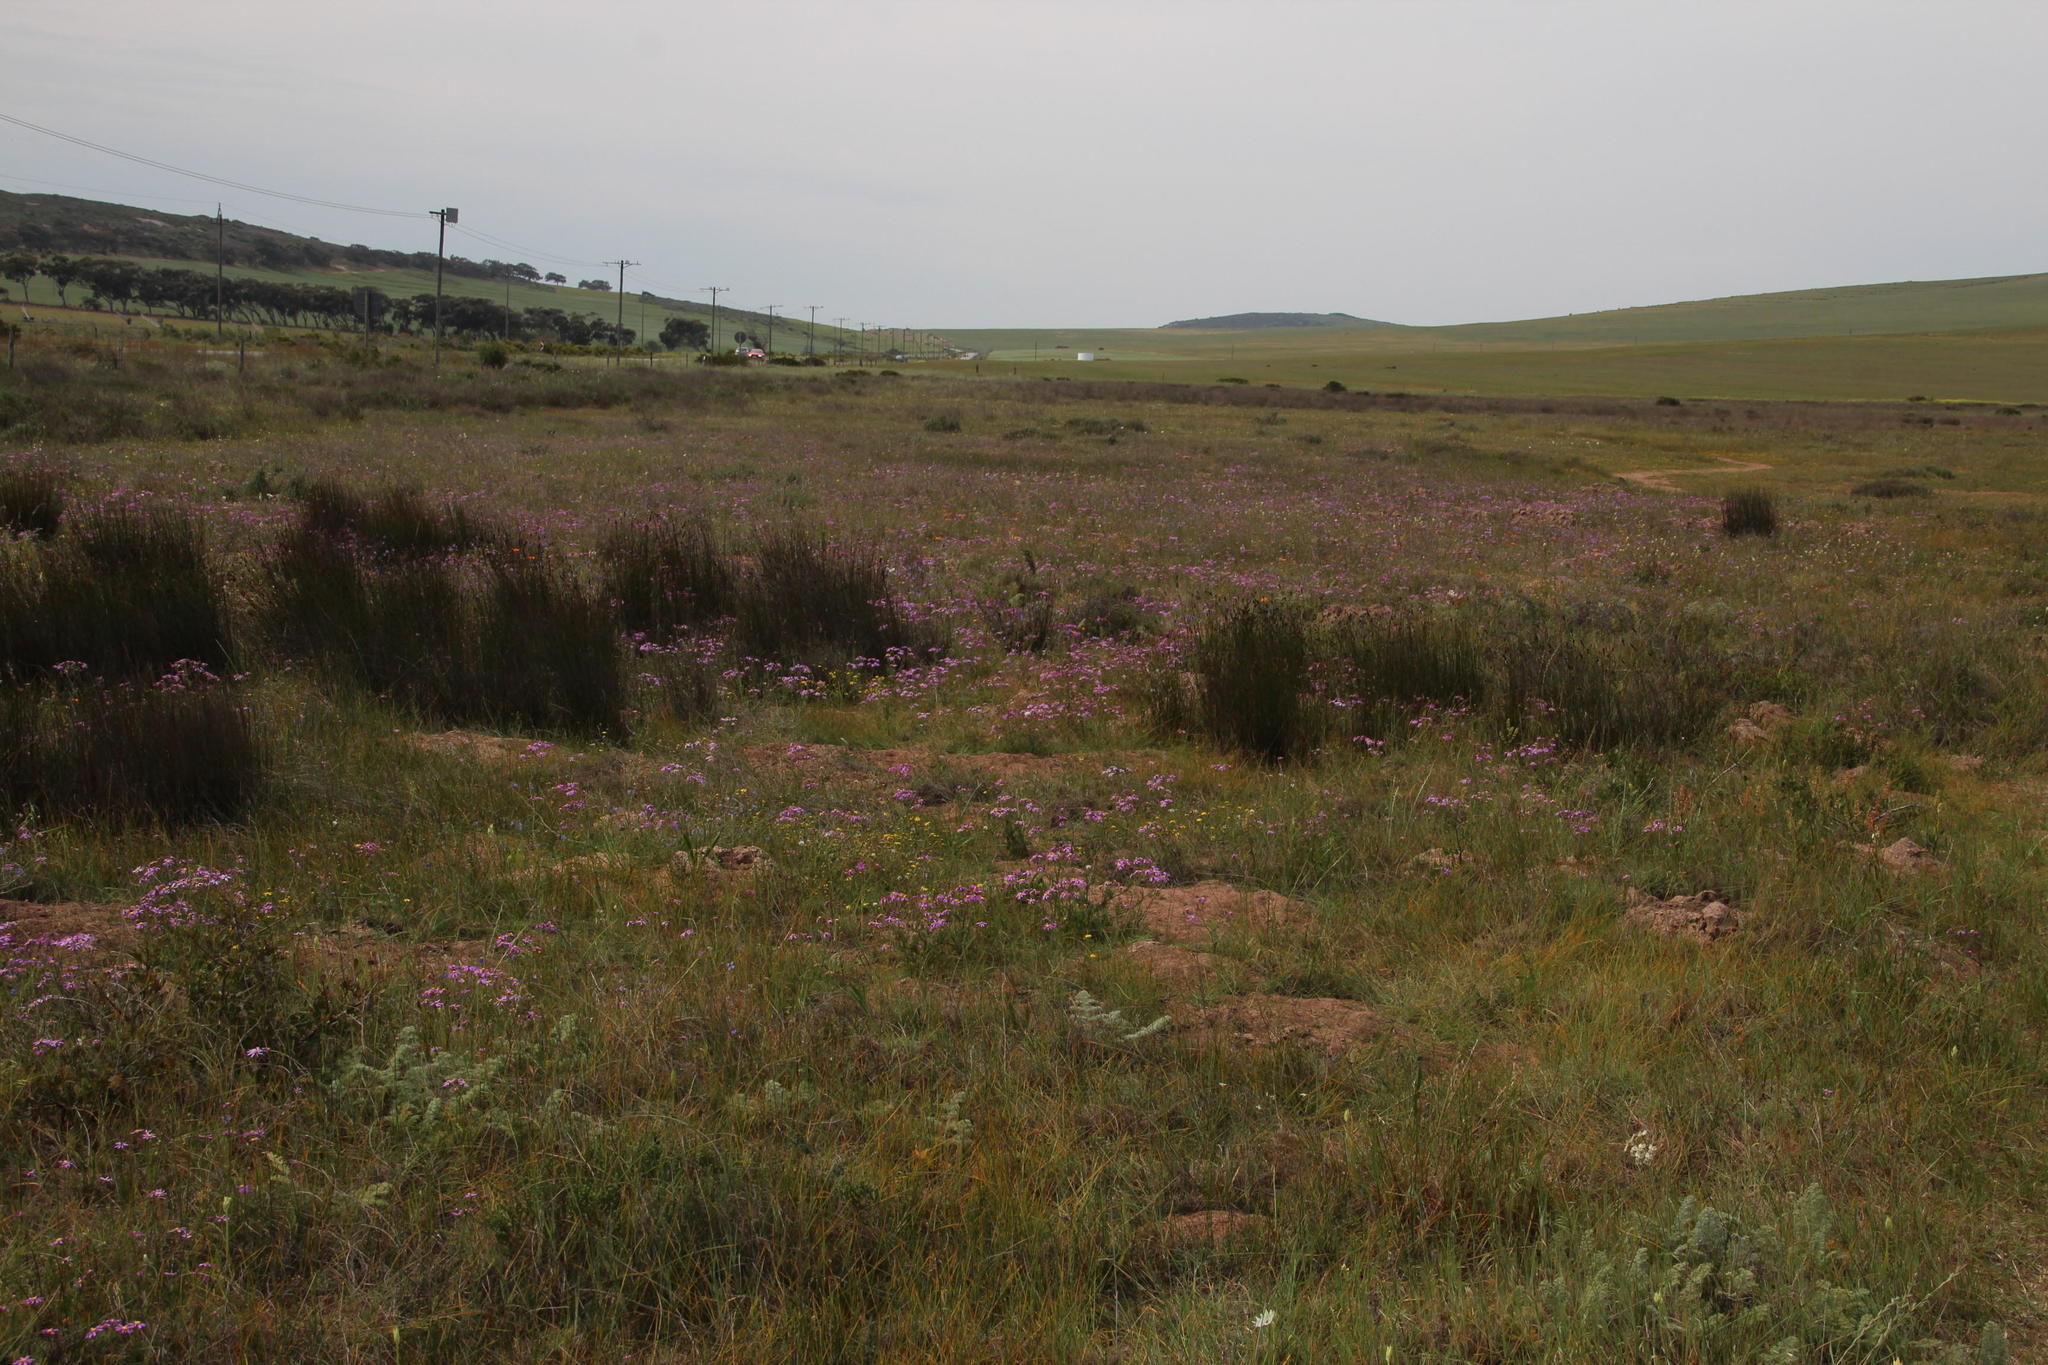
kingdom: Plantae
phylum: Tracheophyta
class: Liliopsida
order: Poales
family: Restionaceae
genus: Elegia
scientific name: Elegia nuda
